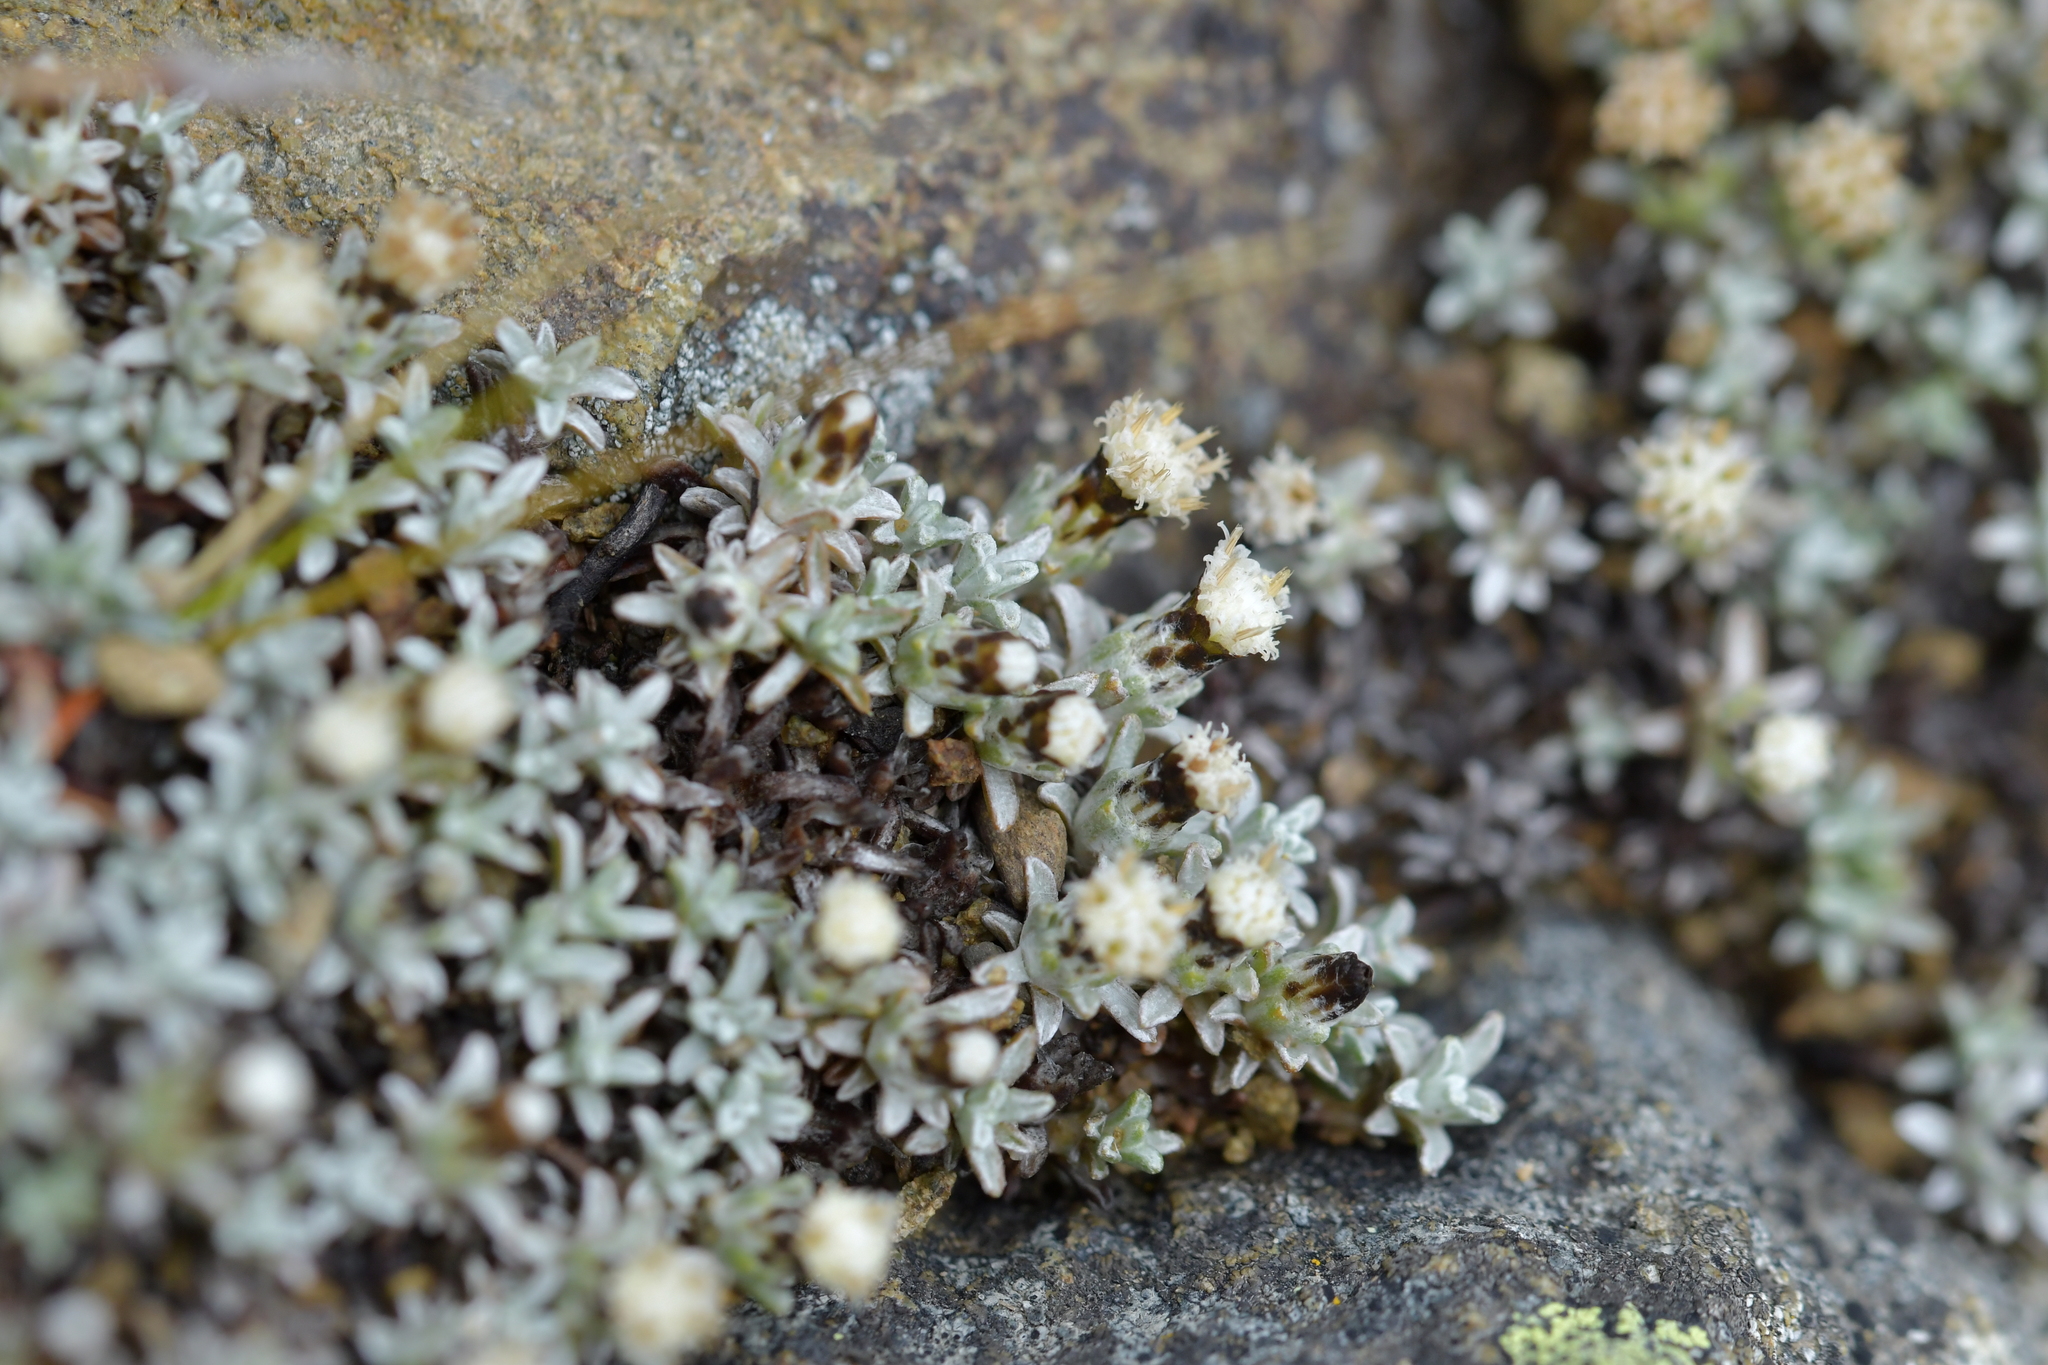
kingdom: Plantae
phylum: Tracheophyta
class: Magnoliopsida
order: Asterales
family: Asteraceae
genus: Raoulia
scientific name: Raoulia beauverdii
